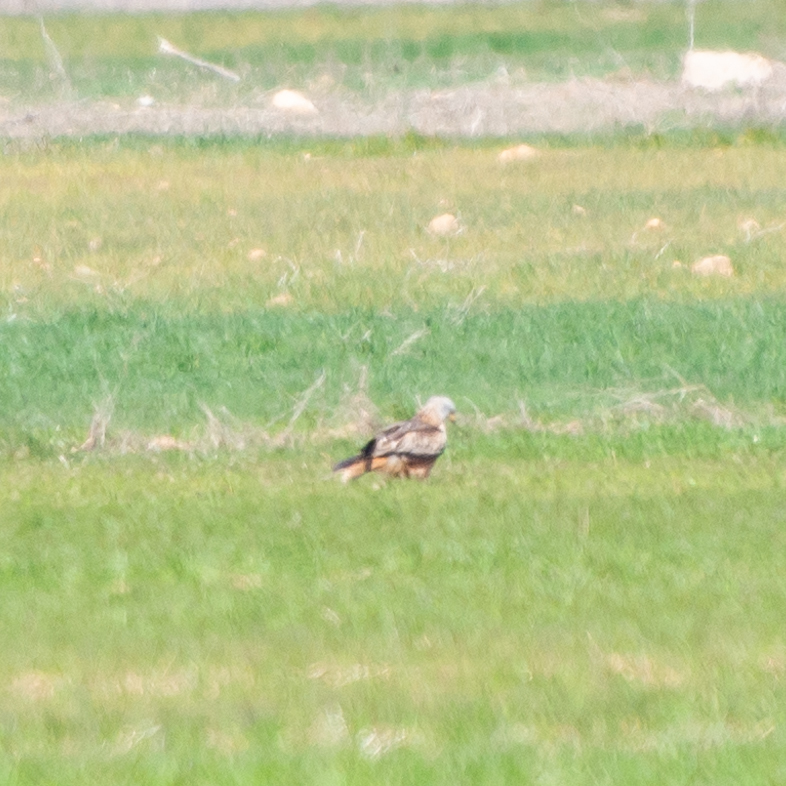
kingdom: Animalia
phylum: Chordata
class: Aves
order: Accipitriformes
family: Accipitridae
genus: Milvus
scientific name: Milvus milvus
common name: Red kite
